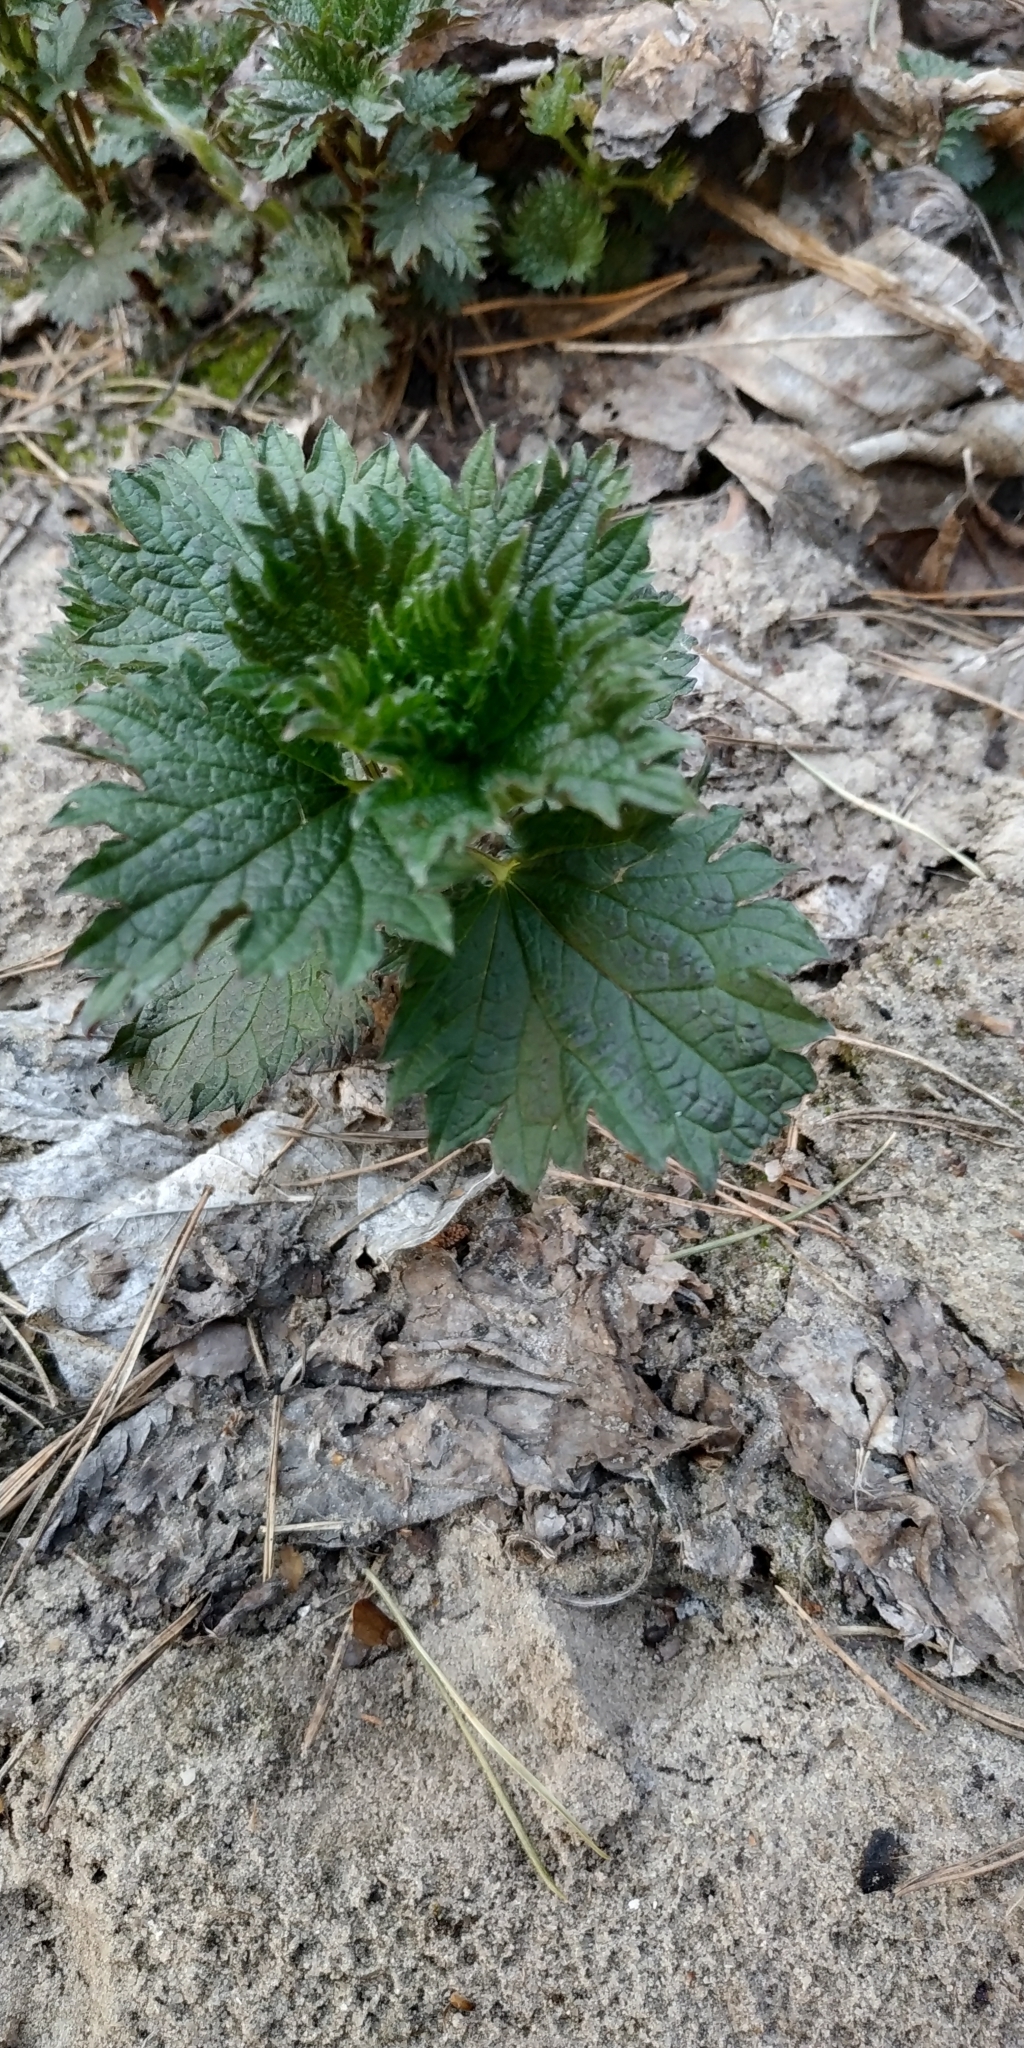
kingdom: Plantae
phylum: Tracheophyta
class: Magnoliopsida
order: Rosales
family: Urticaceae
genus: Urtica
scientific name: Urtica dioica
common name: Common nettle
